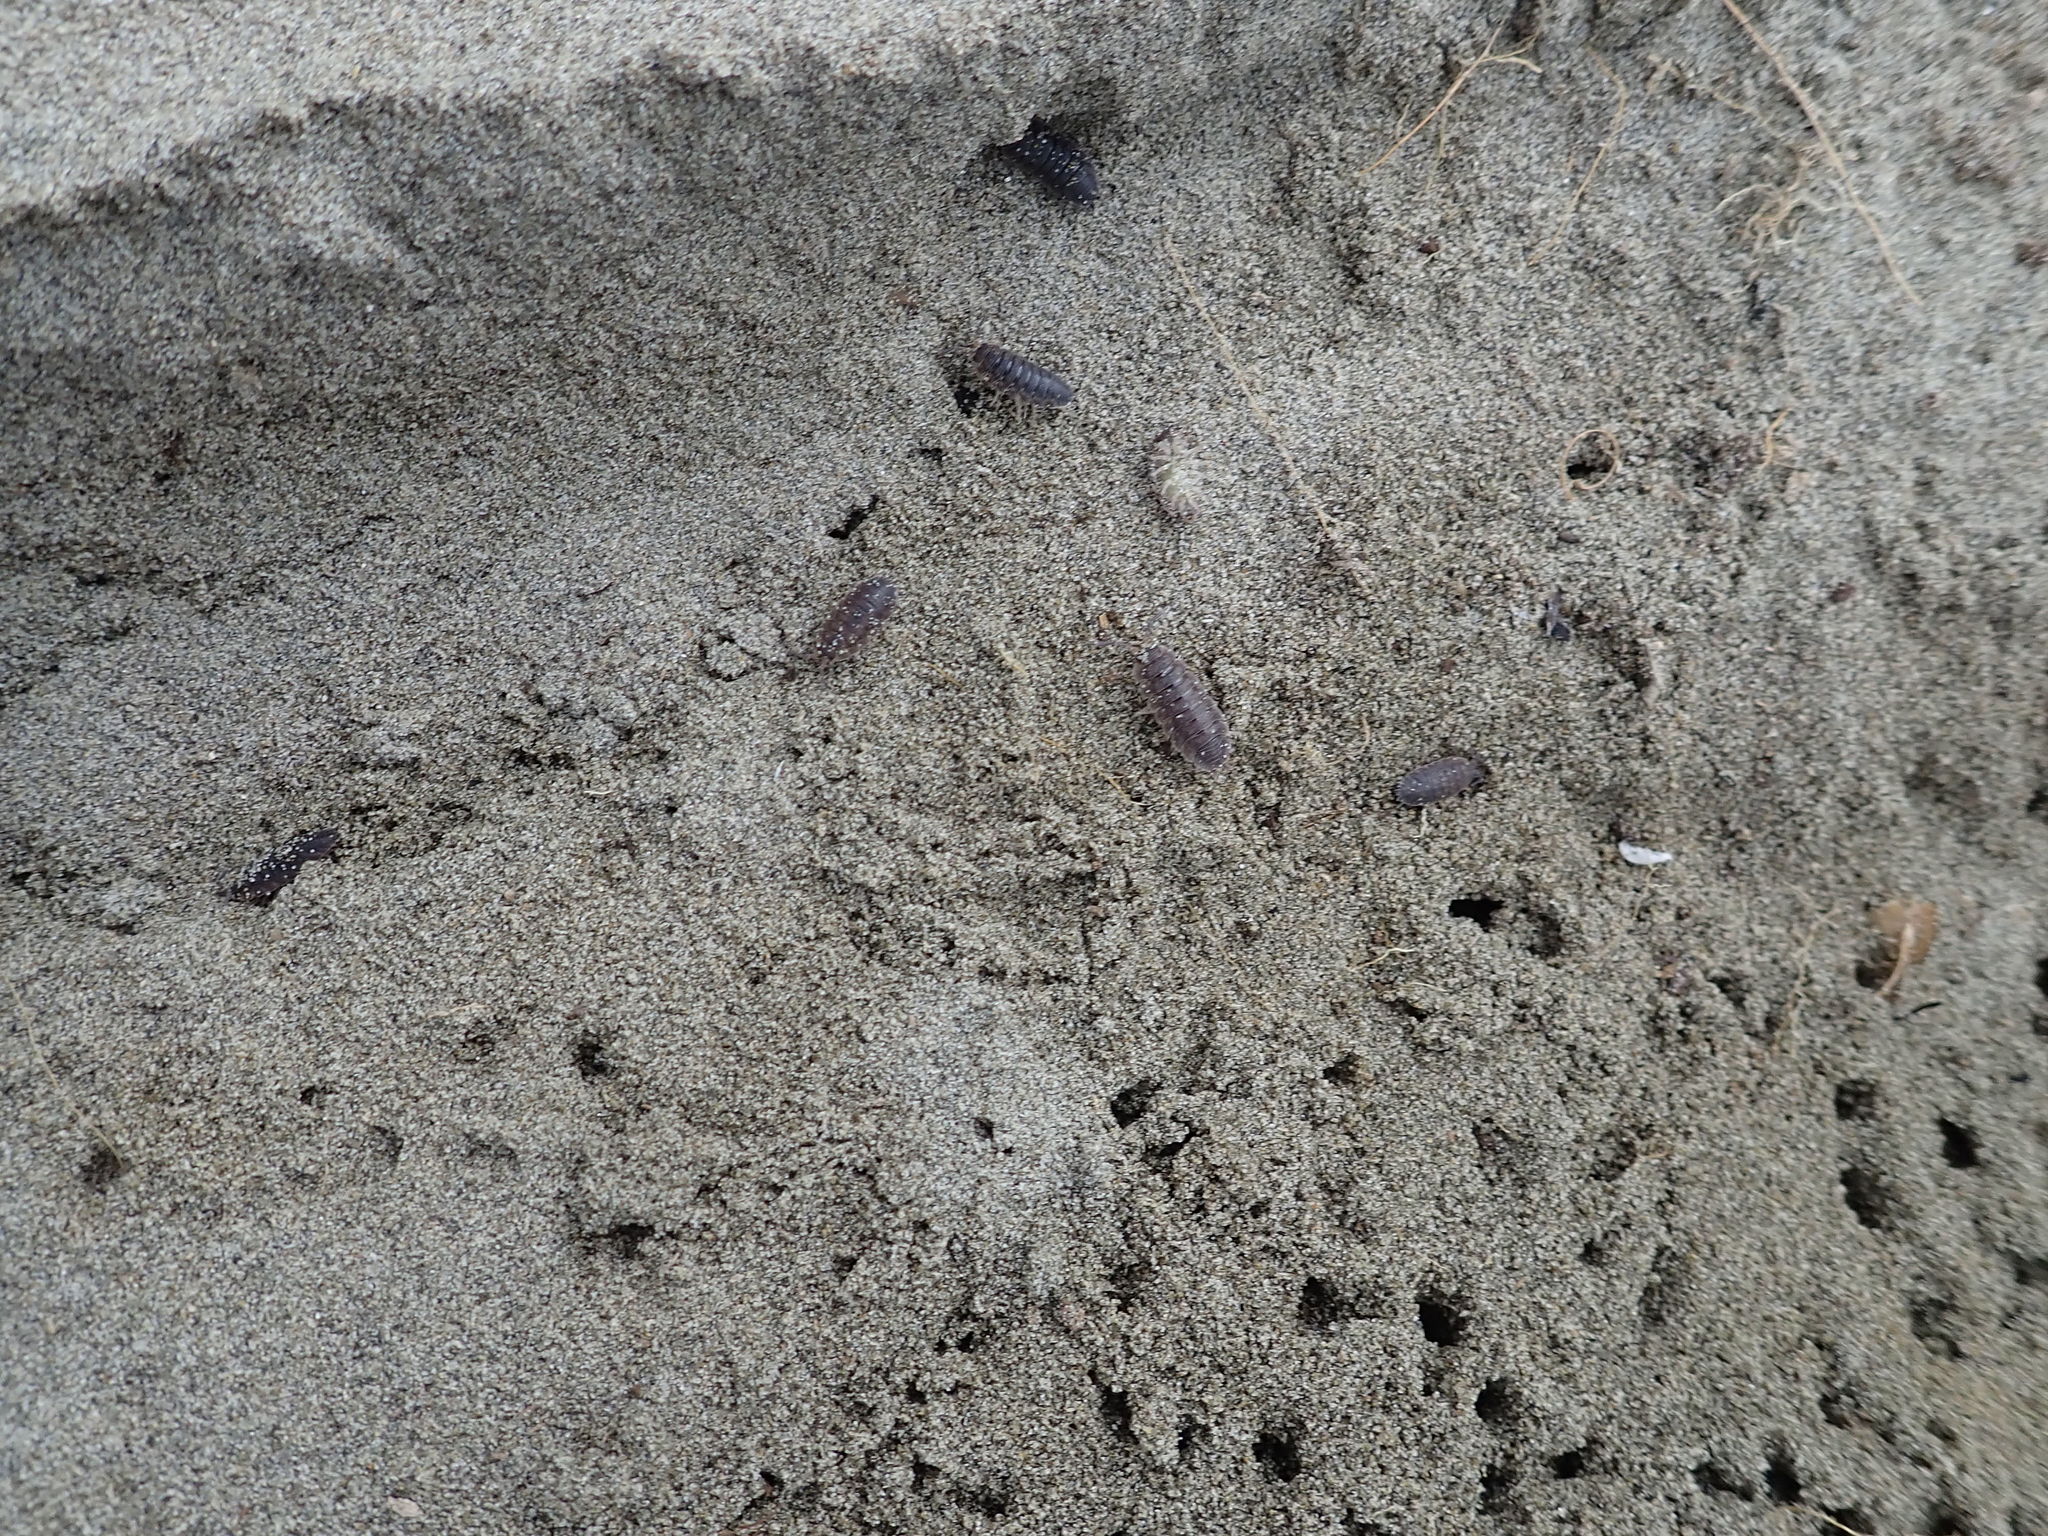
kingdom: Animalia
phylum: Arthropoda
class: Malacostraca
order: Isopoda
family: Porcellionidae
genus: Porcellio
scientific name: Porcellio scaber
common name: Common rough woodlouse
